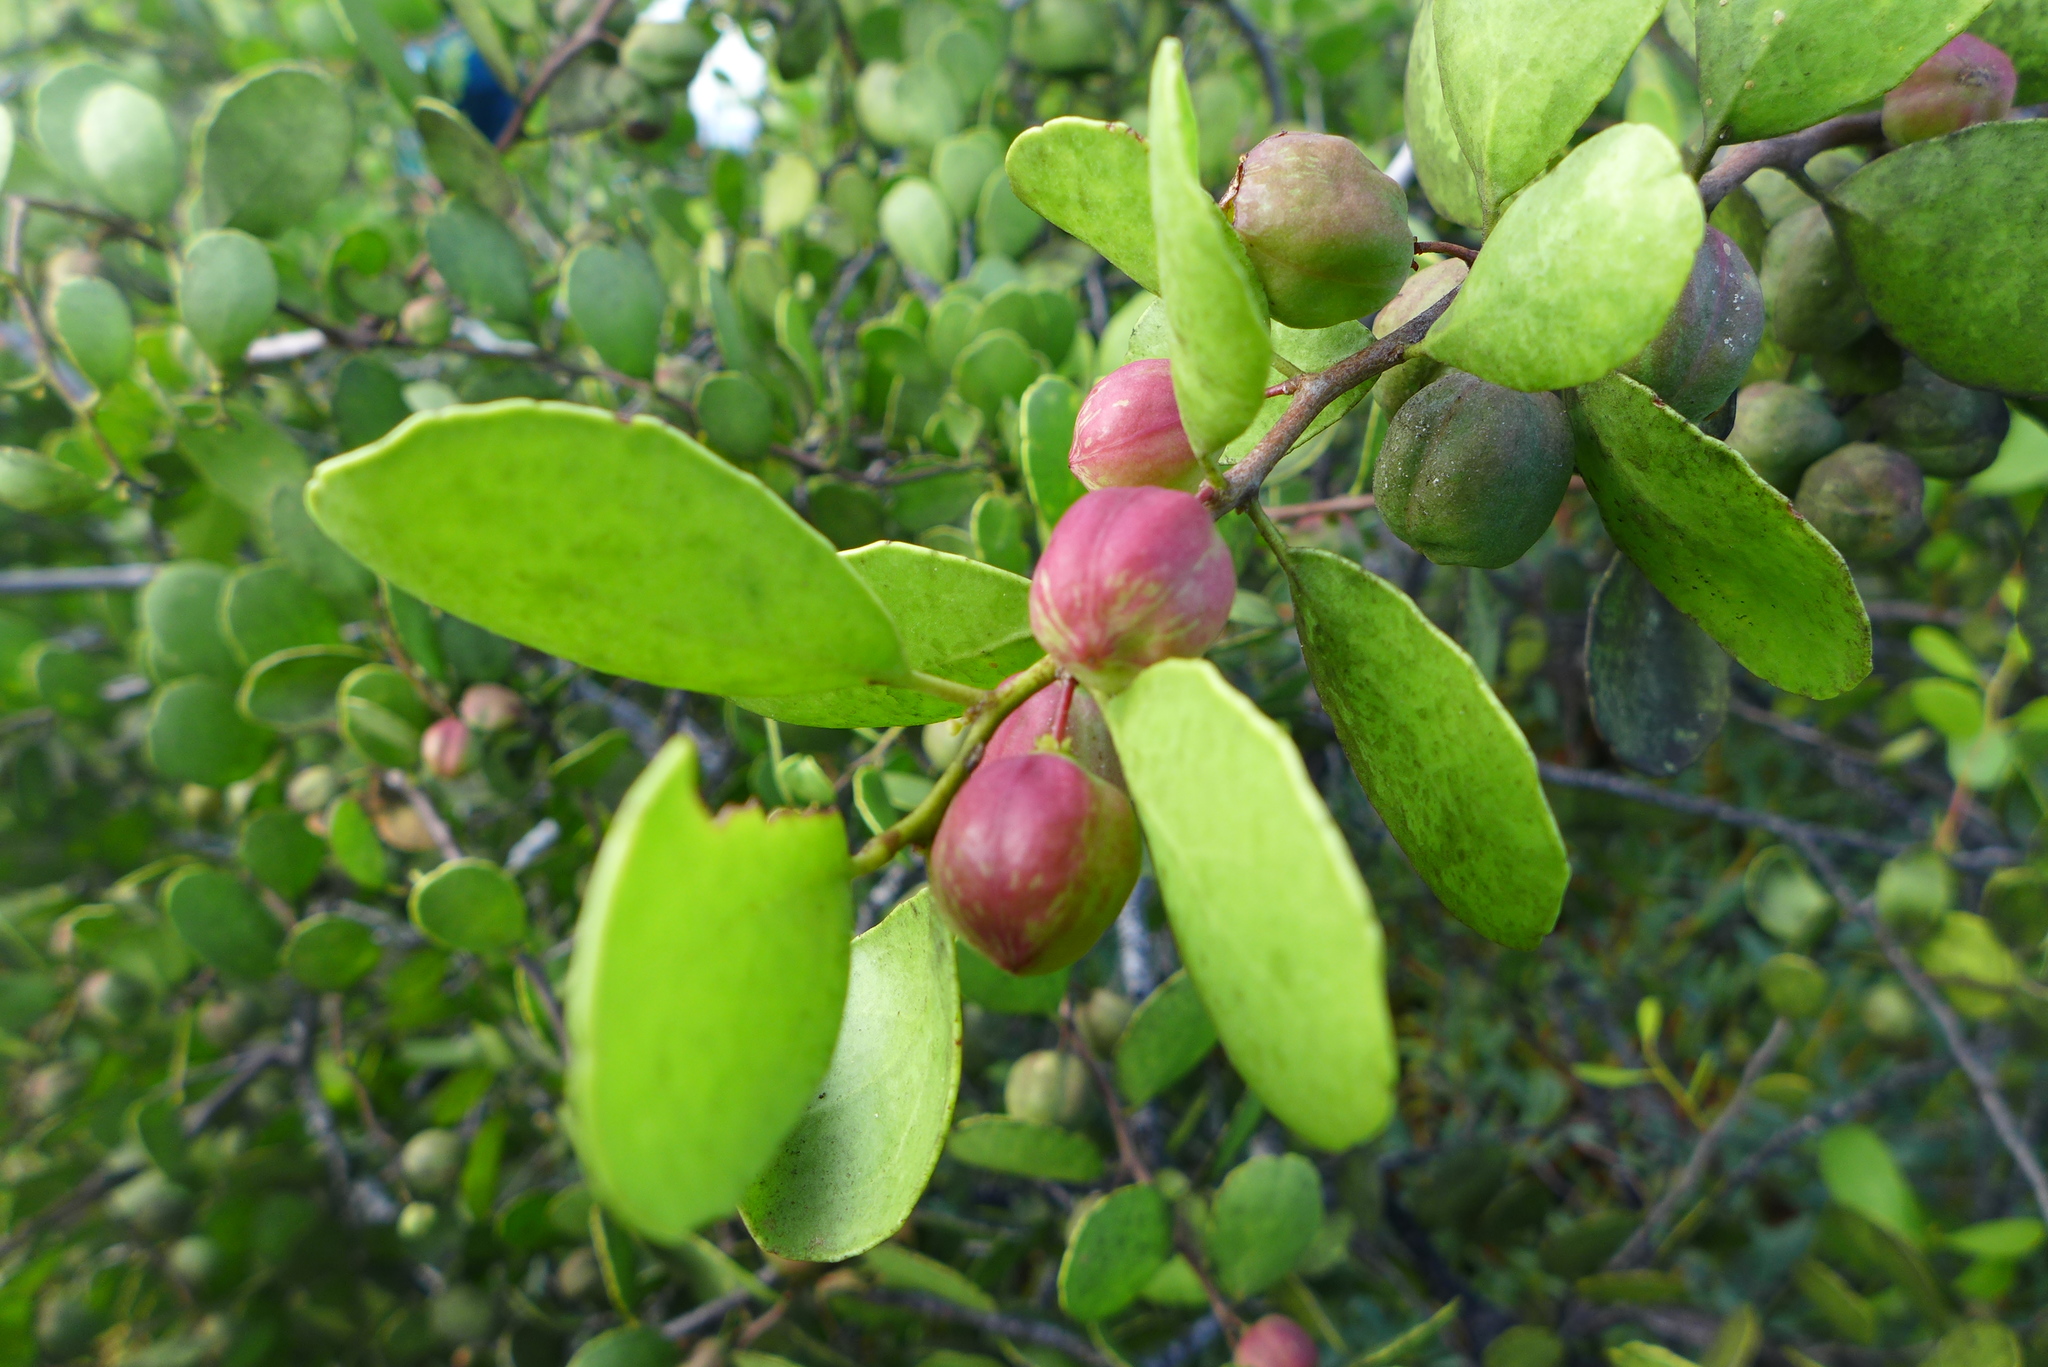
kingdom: Plantae
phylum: Tracheophyta
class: Magnoliopsida
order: Celastrales
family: Celastraceae
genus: Tricerma
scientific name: Tricerma octogonum
